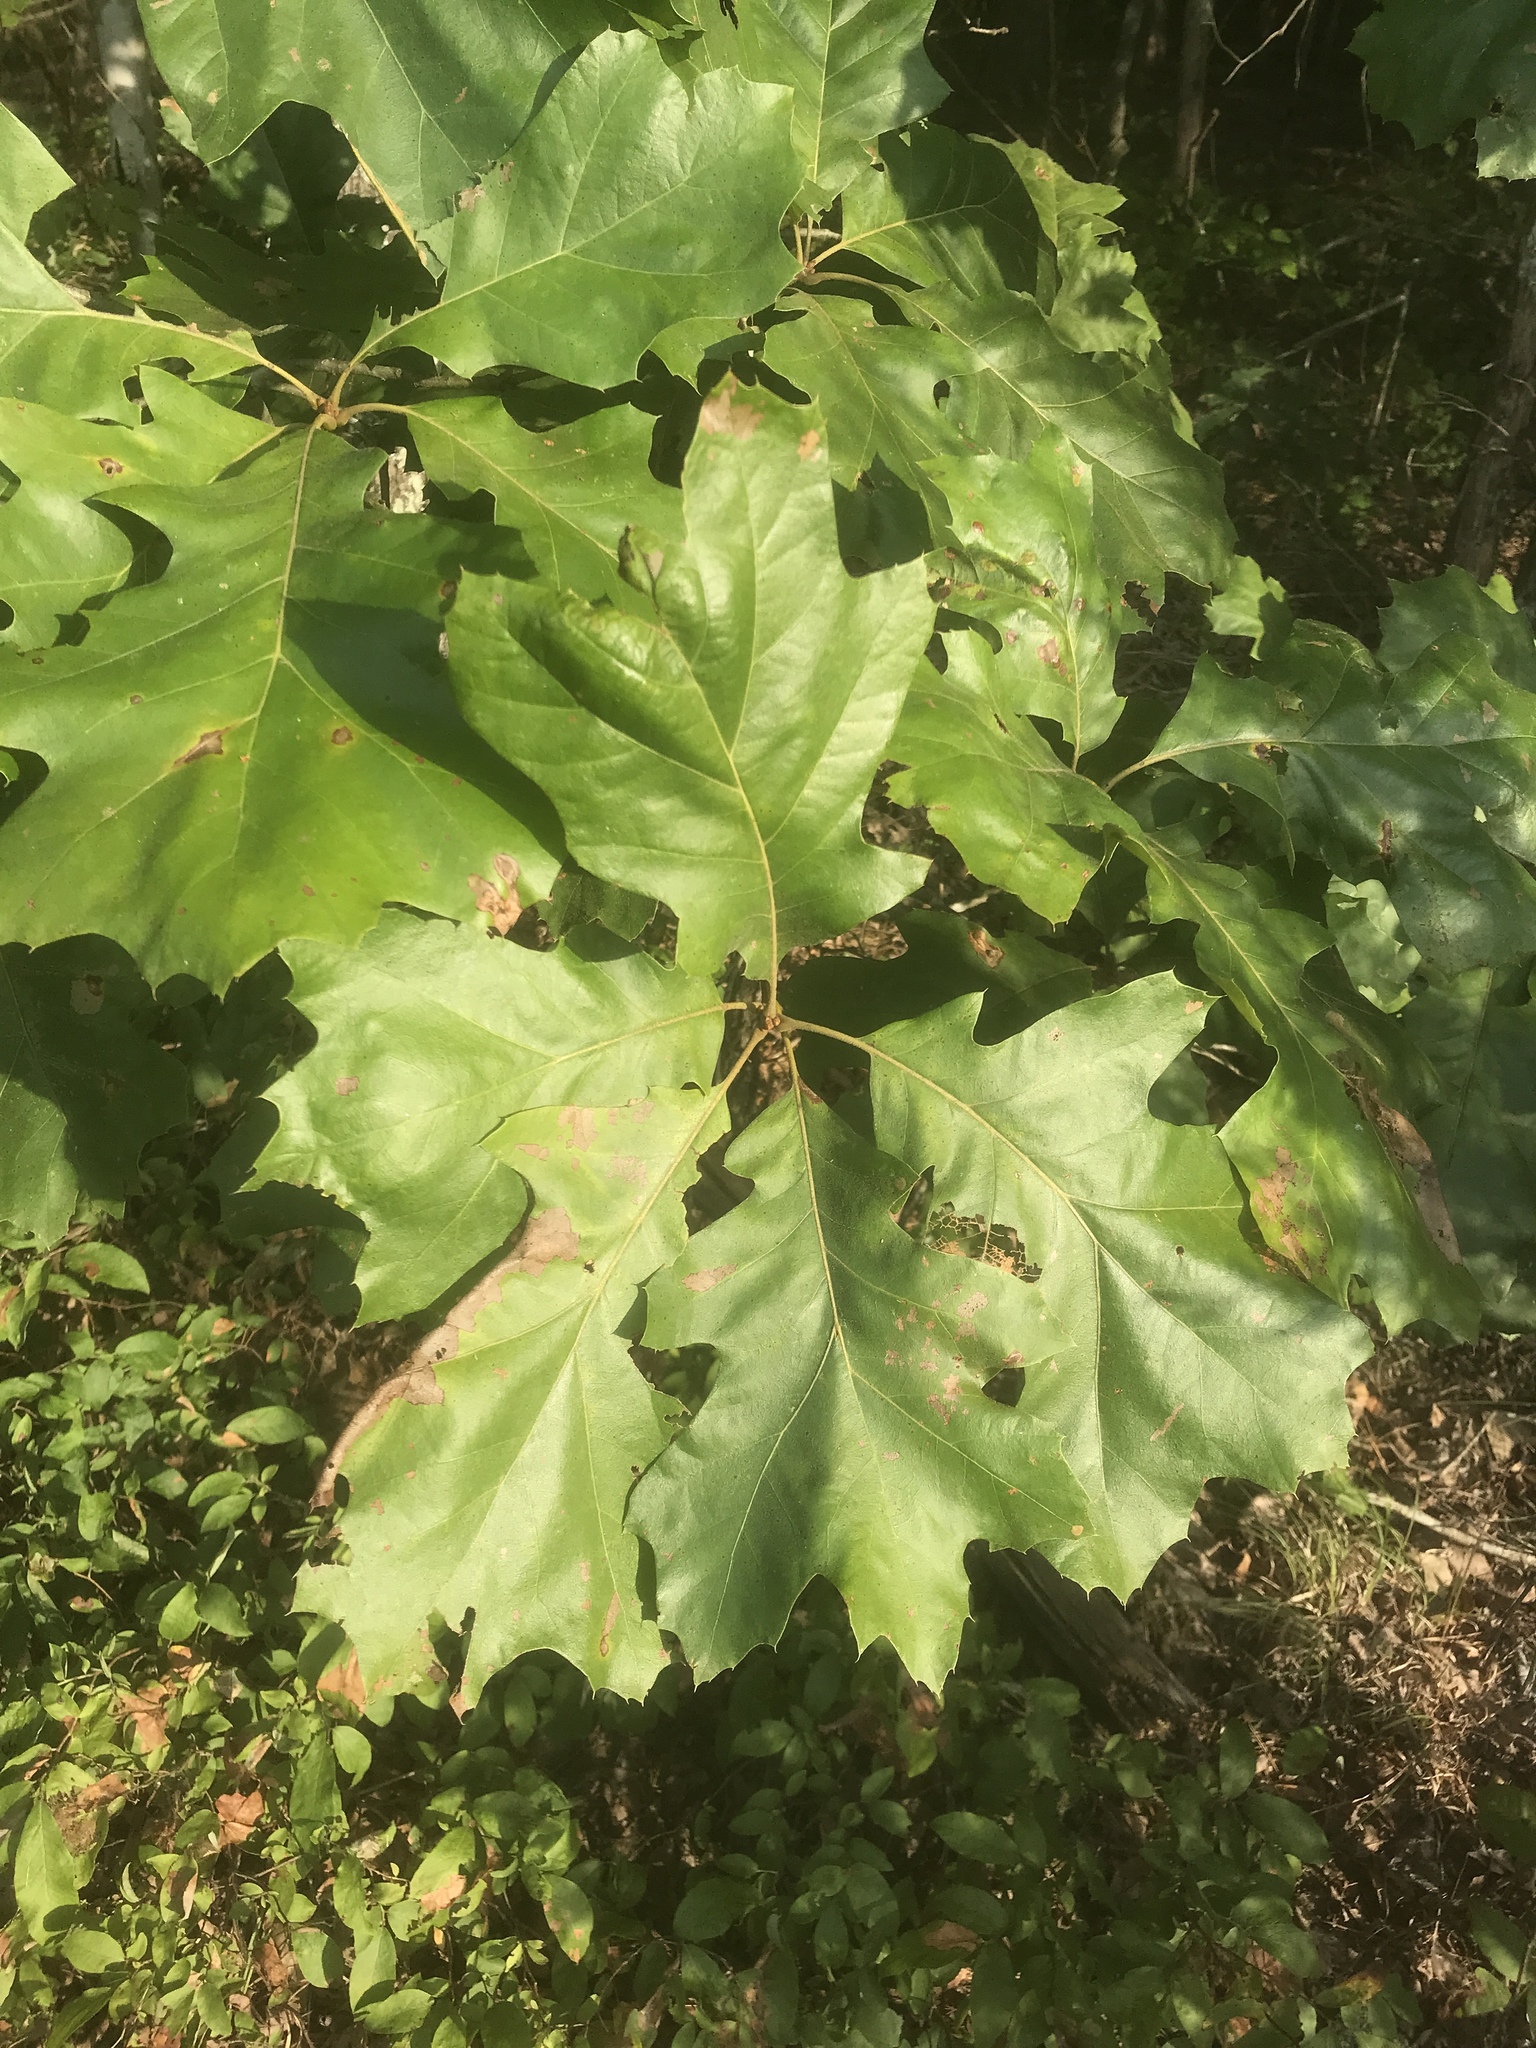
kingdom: Plantae
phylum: Tracheophyta
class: Magnoliopsida
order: Fagales
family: Fagaceae
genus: Quercus
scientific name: Quercus velutina
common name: Black oak
